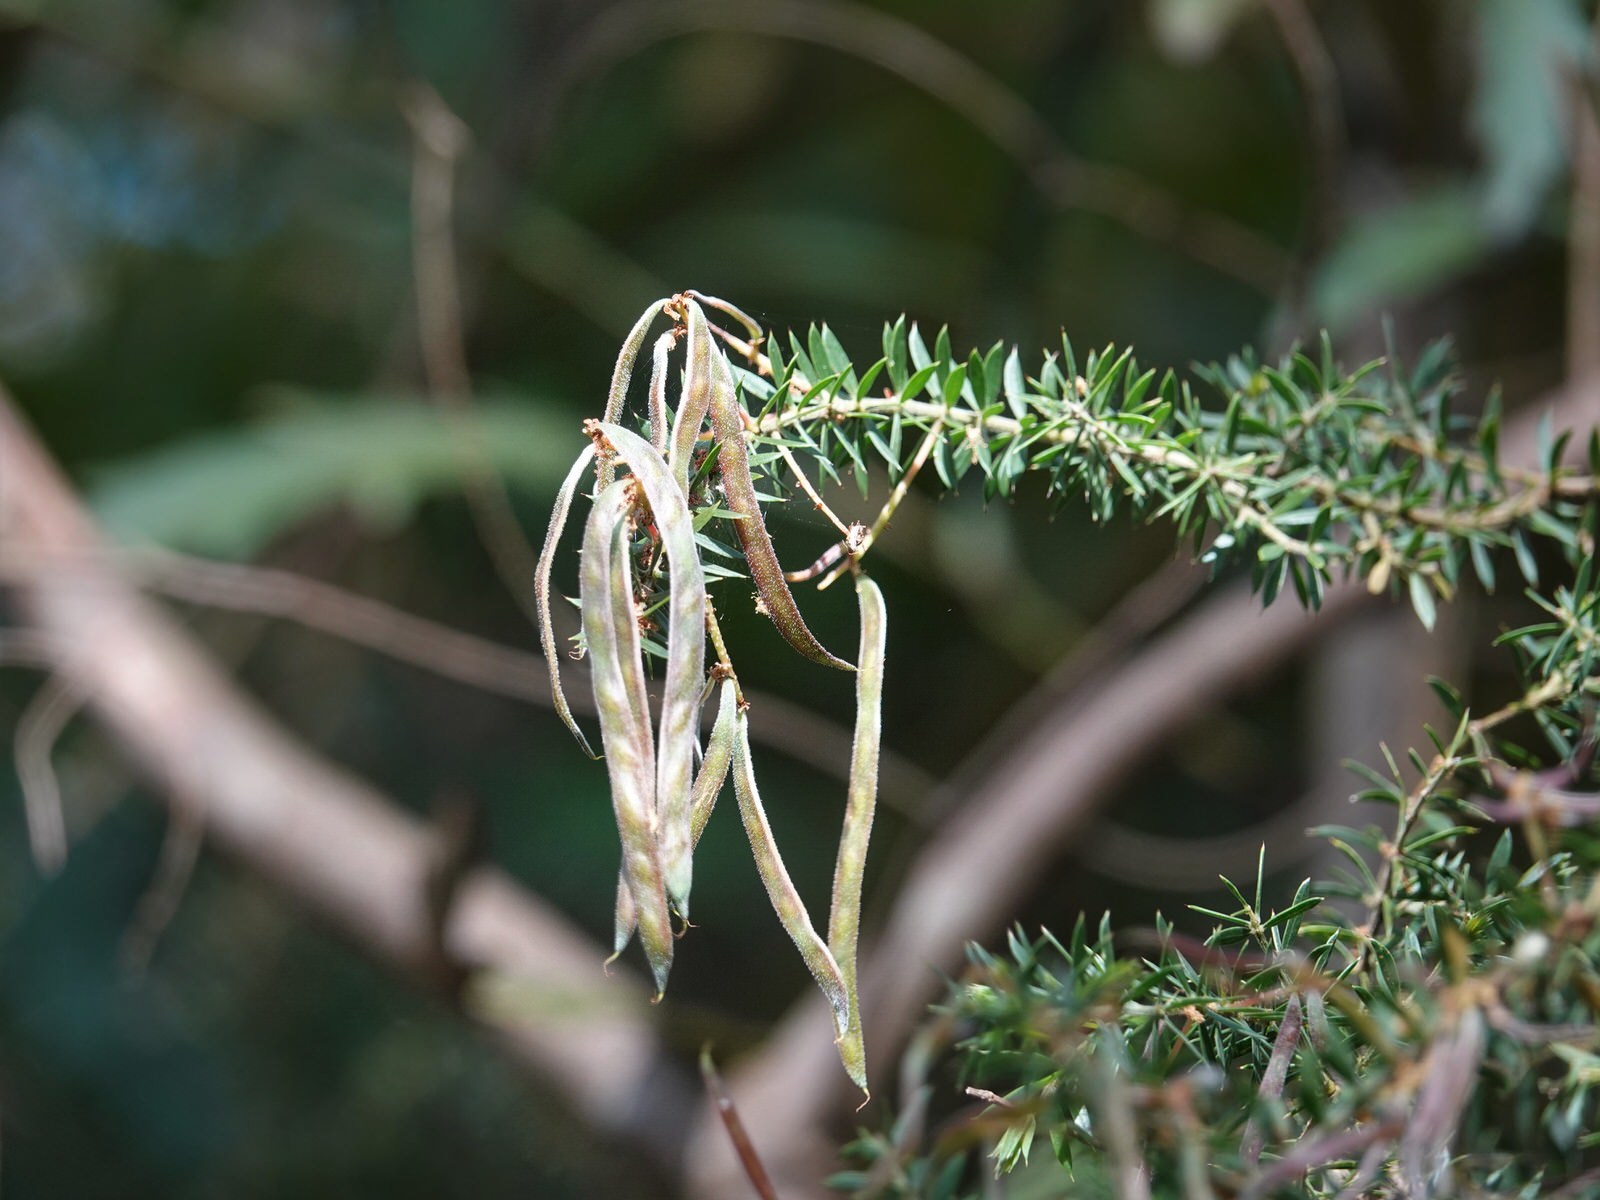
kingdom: Plantae
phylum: Tracheophyta
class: Magnoliopsida
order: Fabales
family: Fabaceae
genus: Acacia
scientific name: Acacia verticillata
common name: Prickly moses
